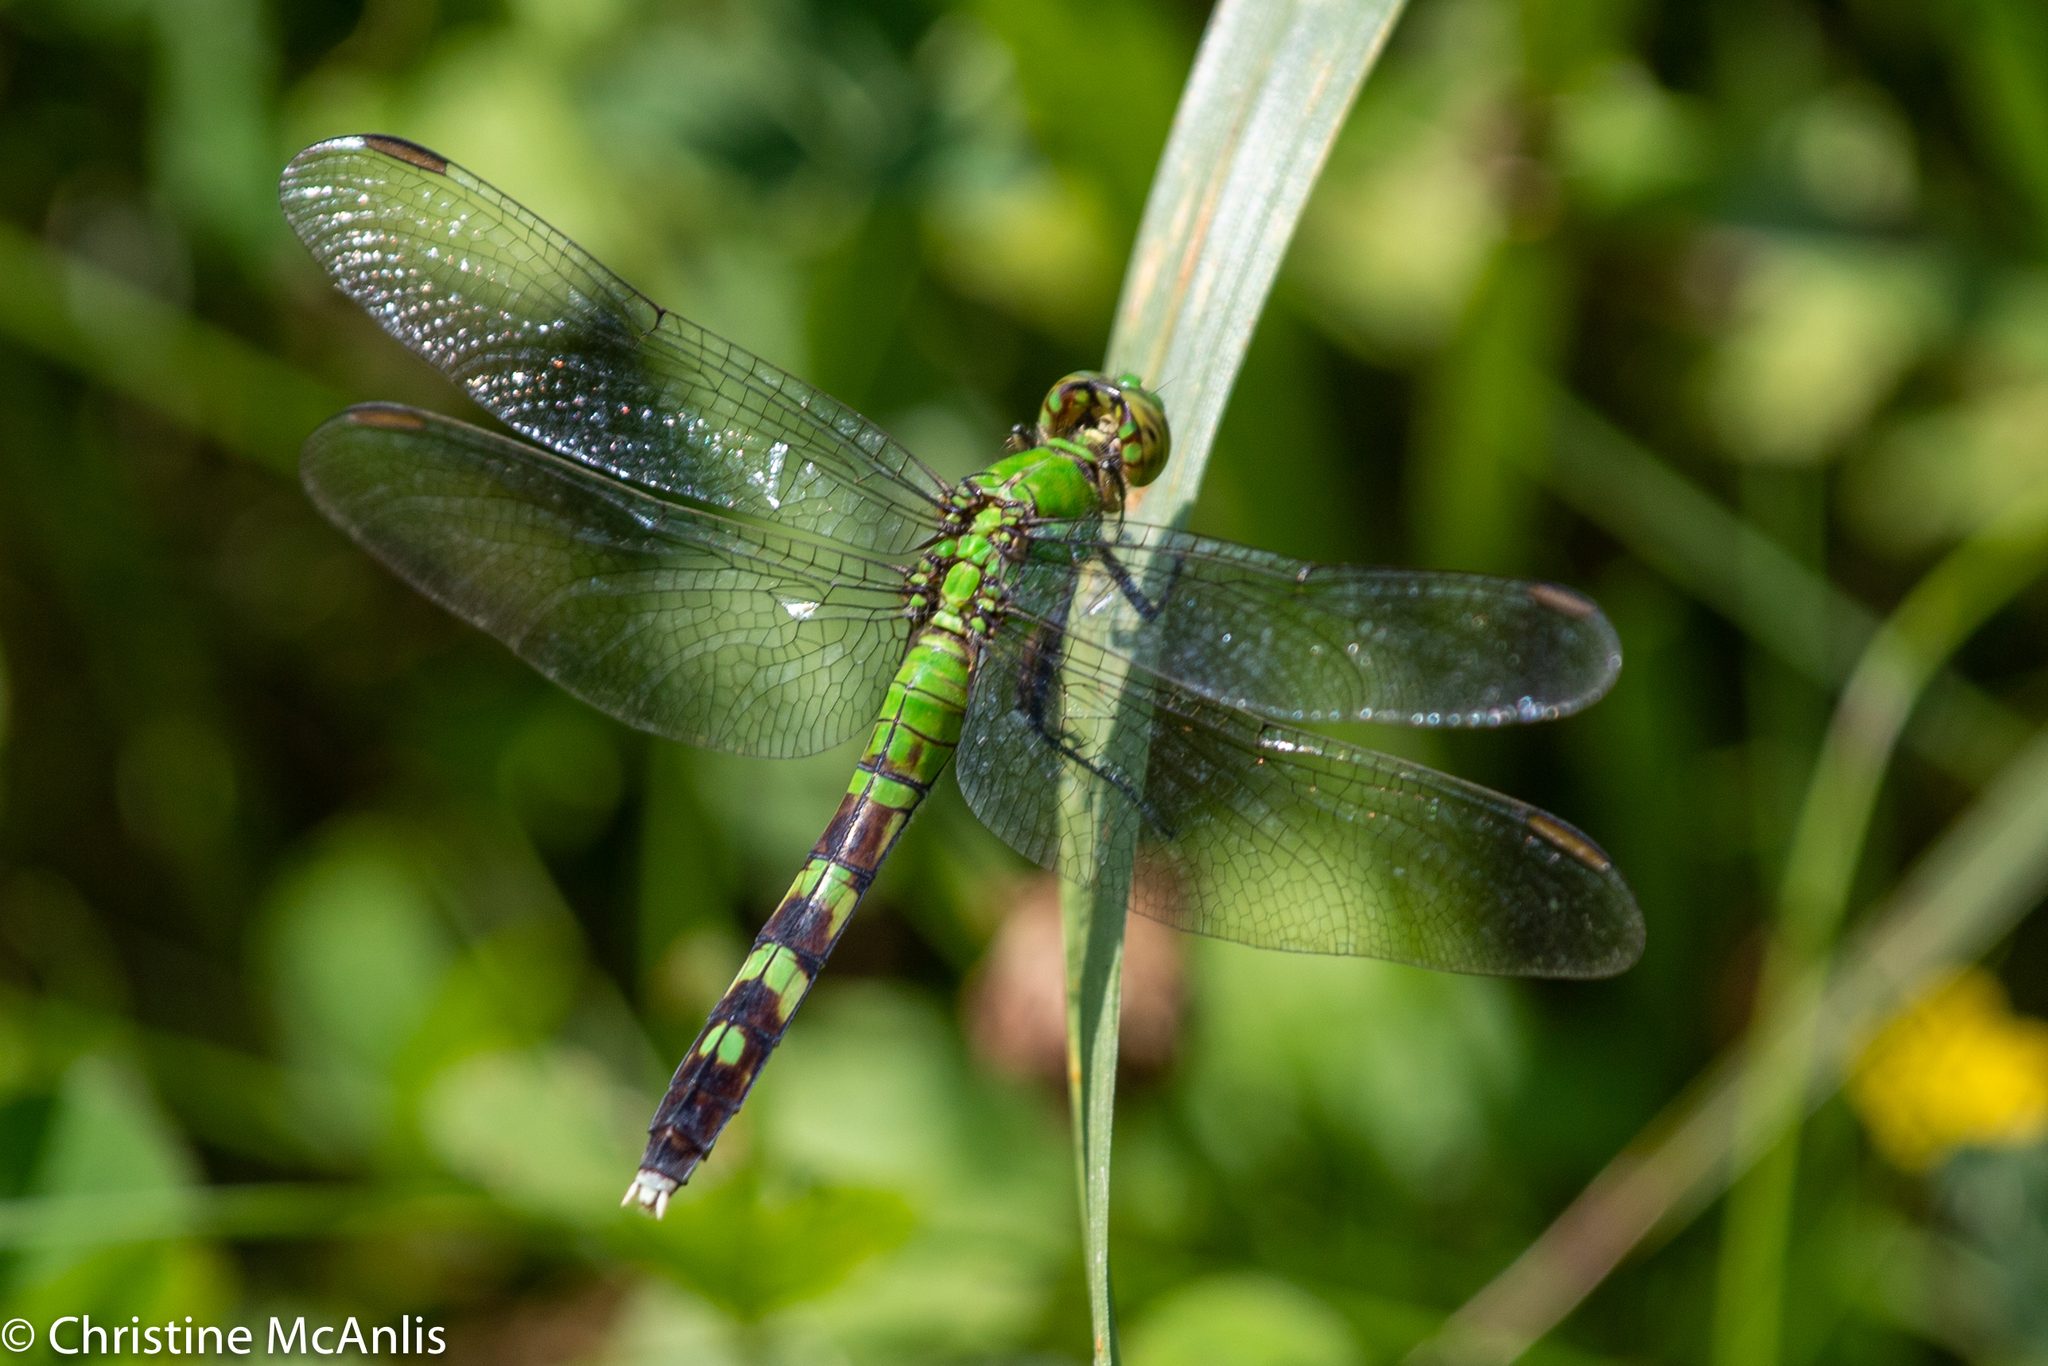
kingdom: Animalia
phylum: Arthropoda
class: Insecta
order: Odonata
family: Libellulidae
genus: Erythemis
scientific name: Erythemis simplicicollis
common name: Eastern pondhawk
